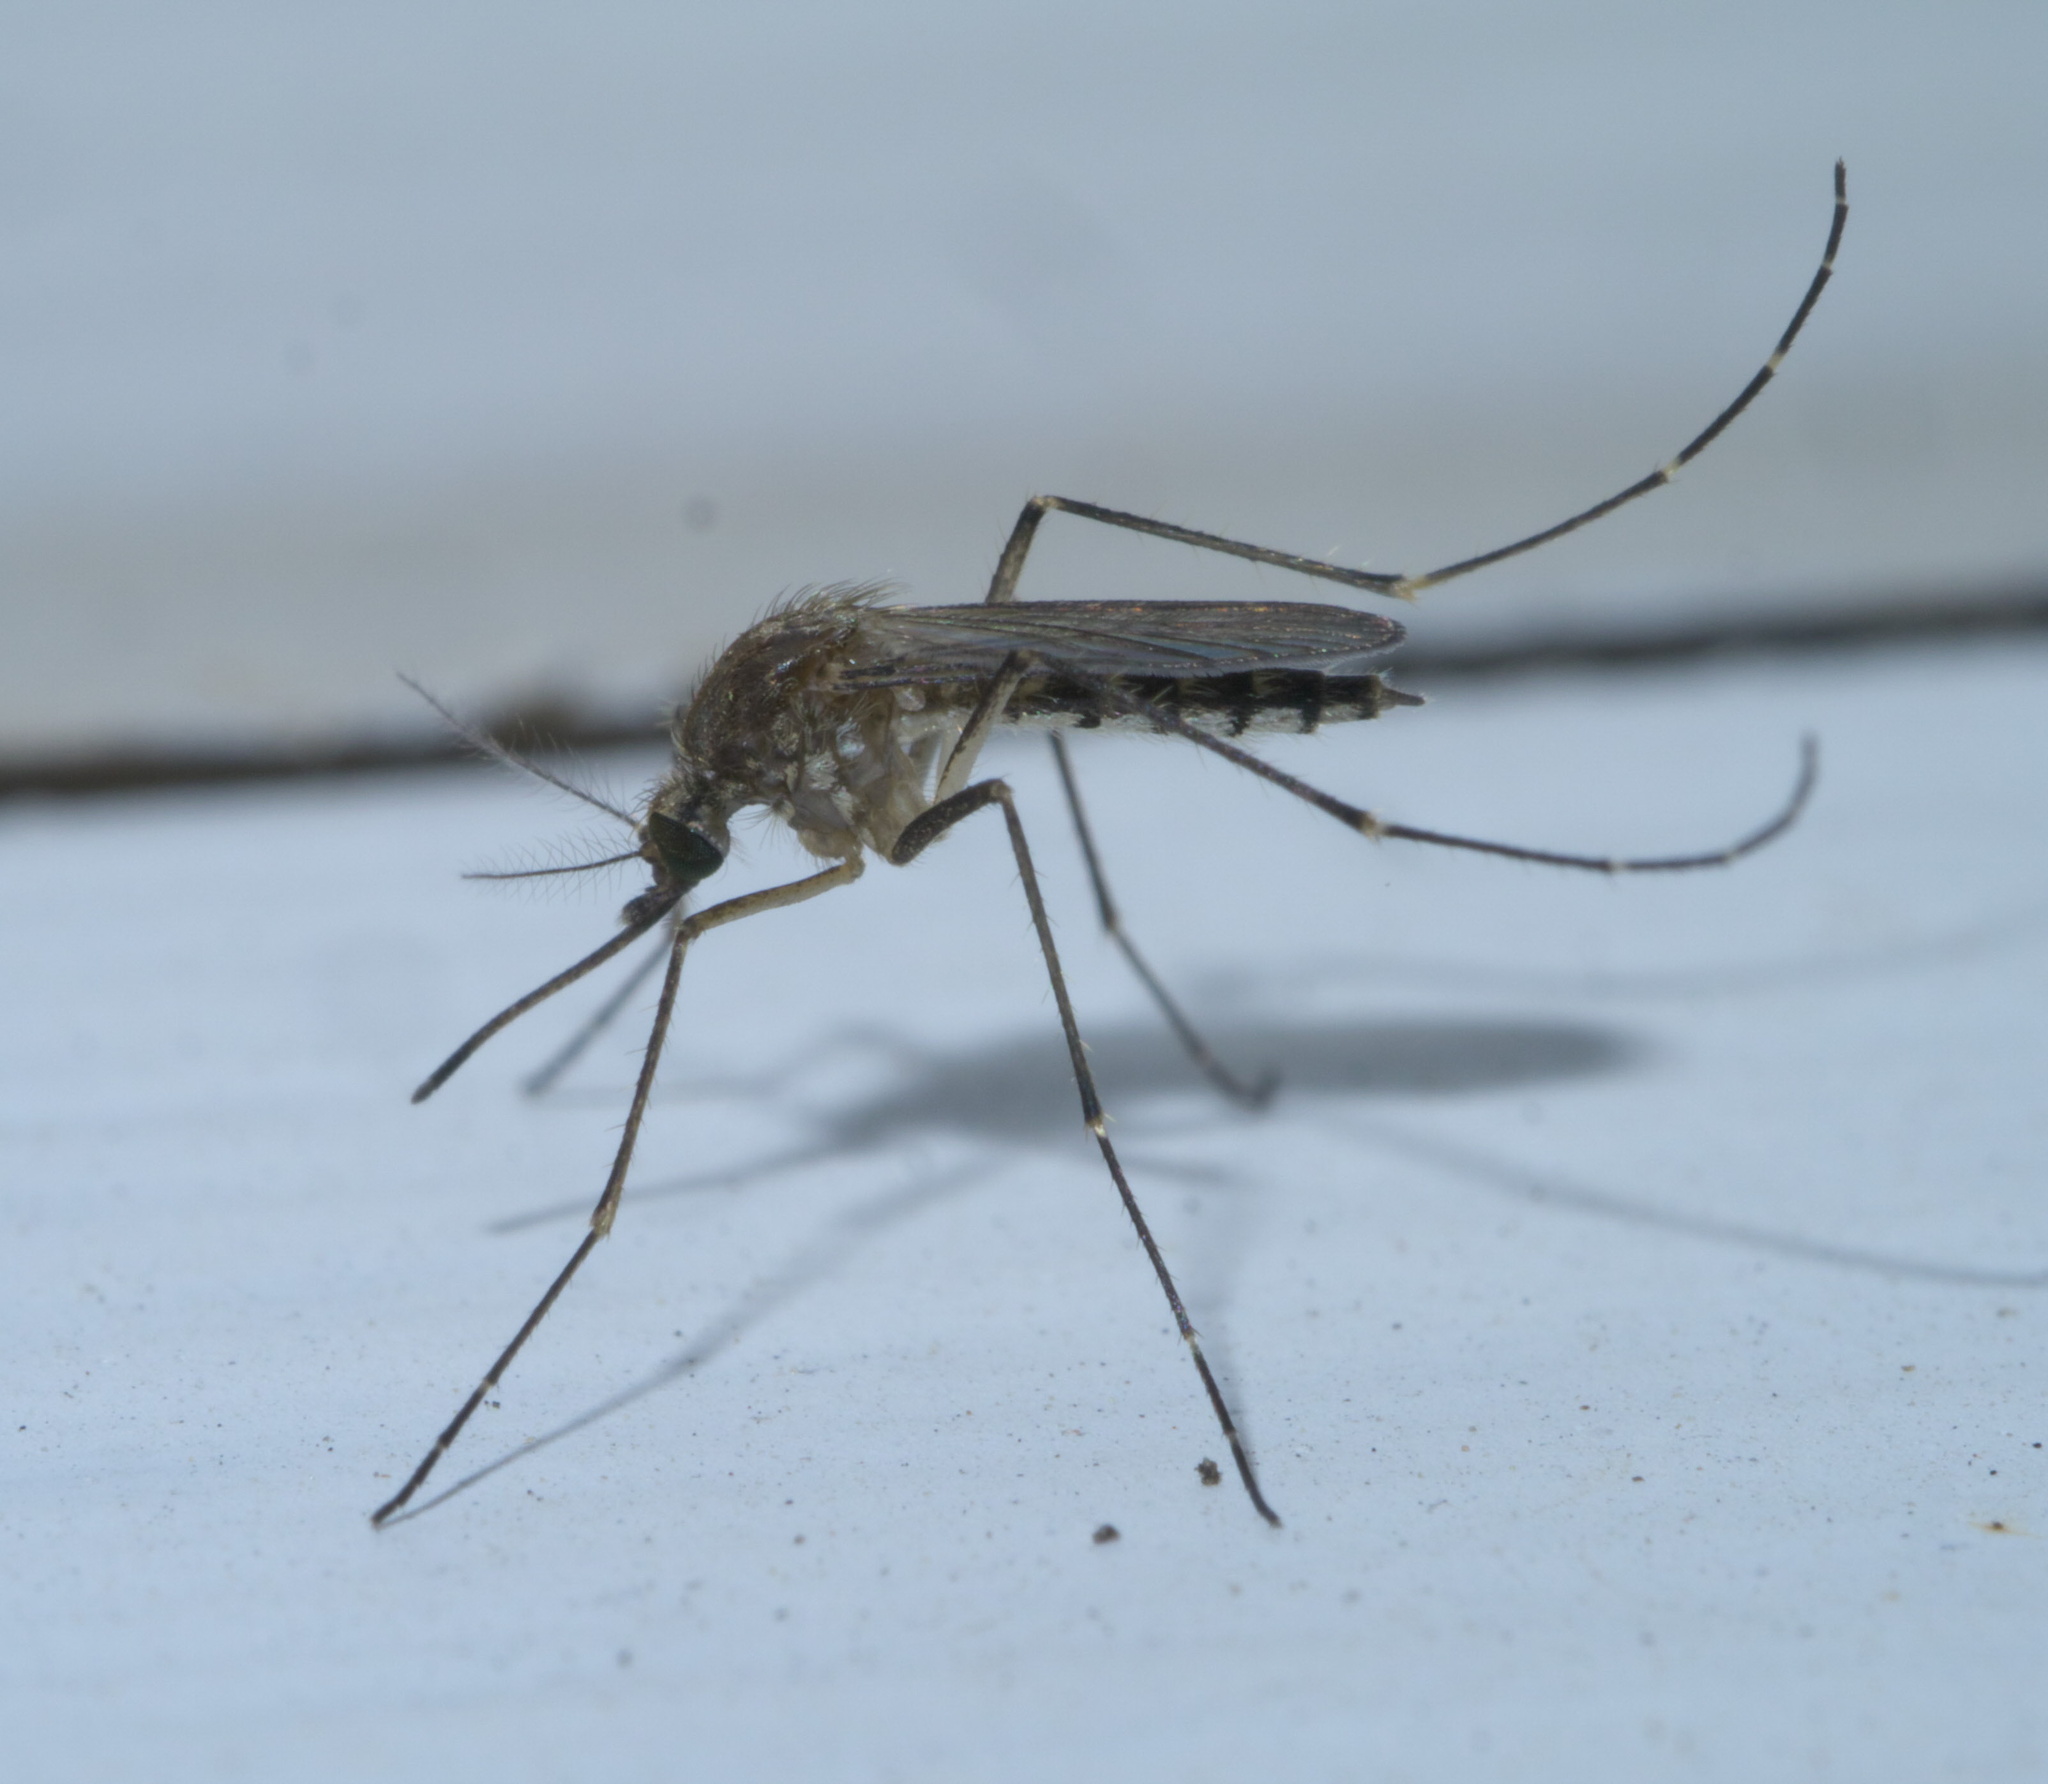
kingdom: Animalia
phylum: Arthropoda
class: Insecta
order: Diptera
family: Culicidae
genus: Aedes
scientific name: Aedes vexans
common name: Inland floodwater mosquito
